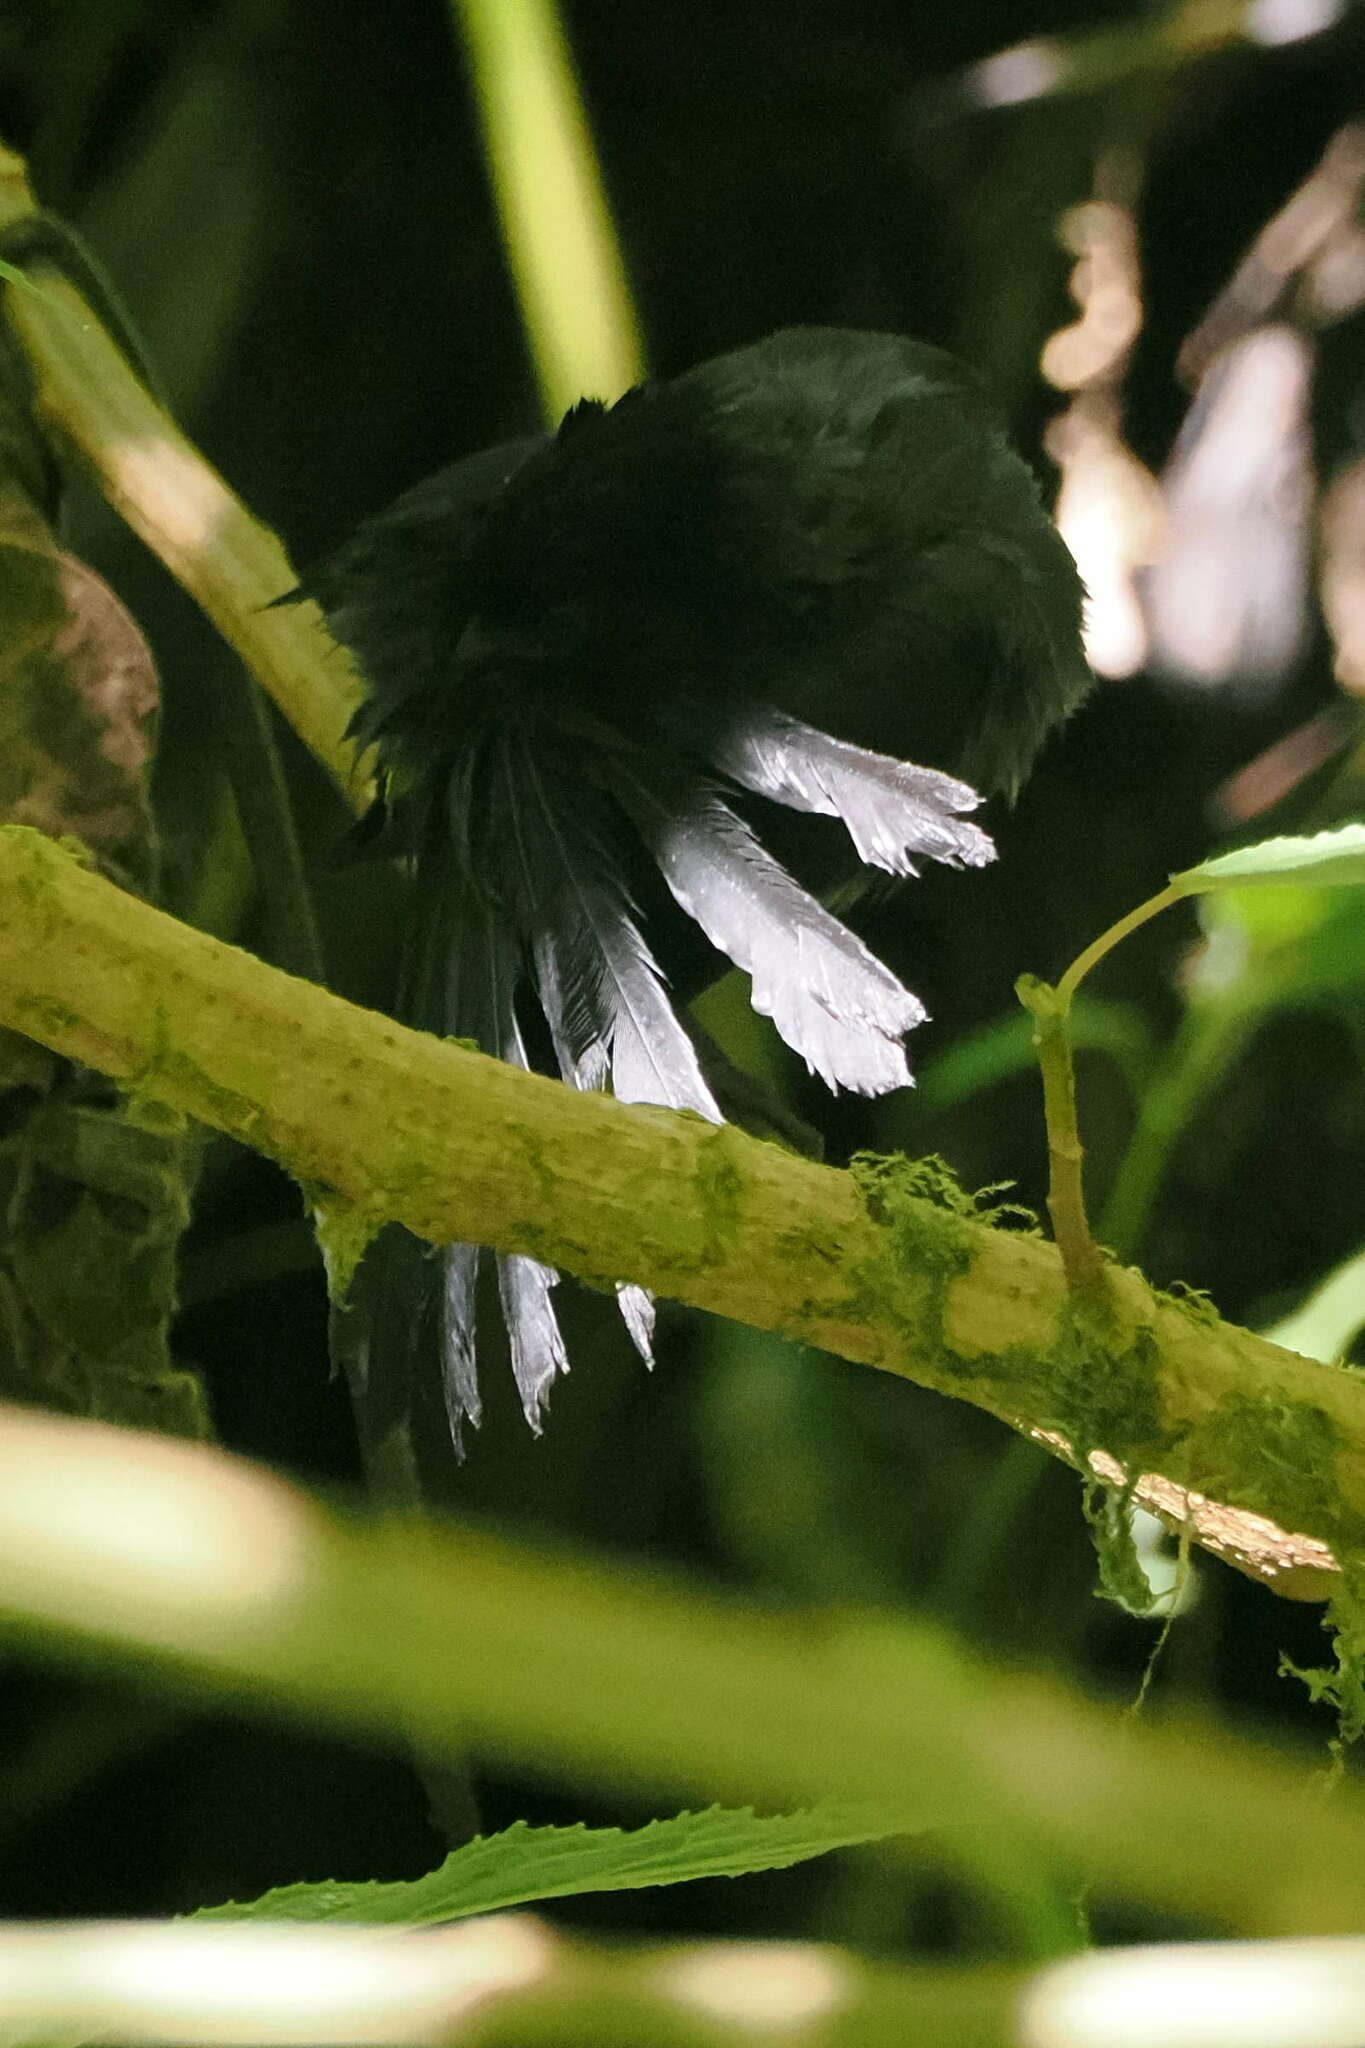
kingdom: Animalia
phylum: Chordata
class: Aves
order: Passeriformes
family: Passerellidae
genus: Atlapetes
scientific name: Atlapetes tibialis
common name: Yellow-thighed brushfinch
